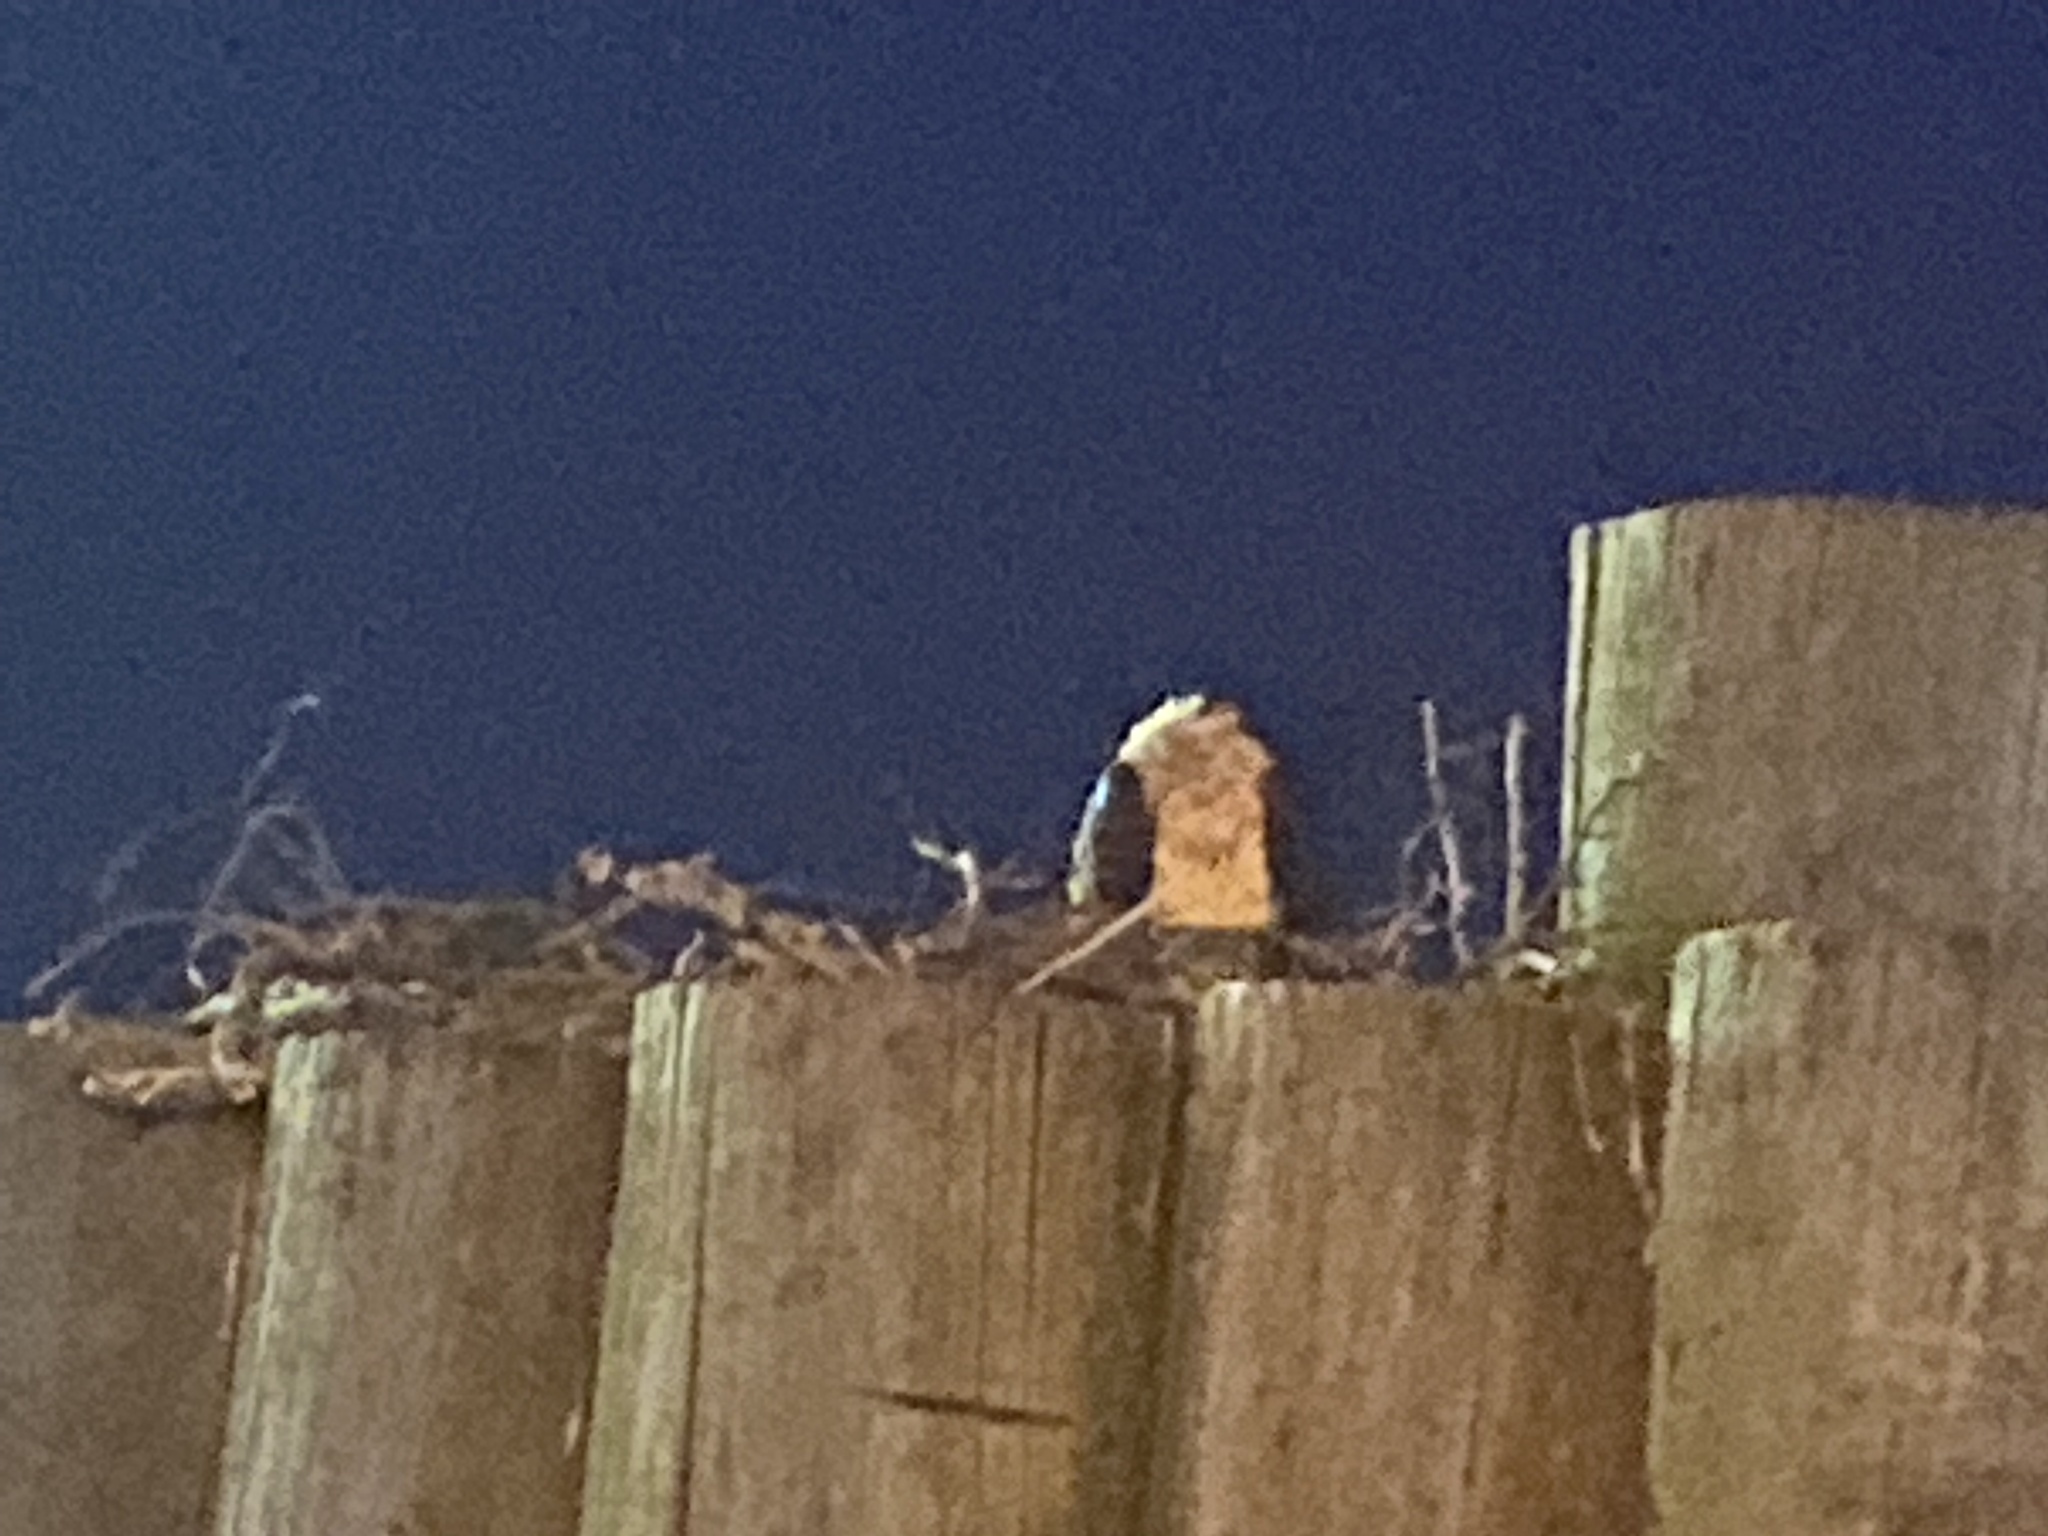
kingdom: Animalia
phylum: Chordata
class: Aves
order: Accipitriformes
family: Pandionidae
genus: Pandion
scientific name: Pandion haliaetus
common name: Osprey
